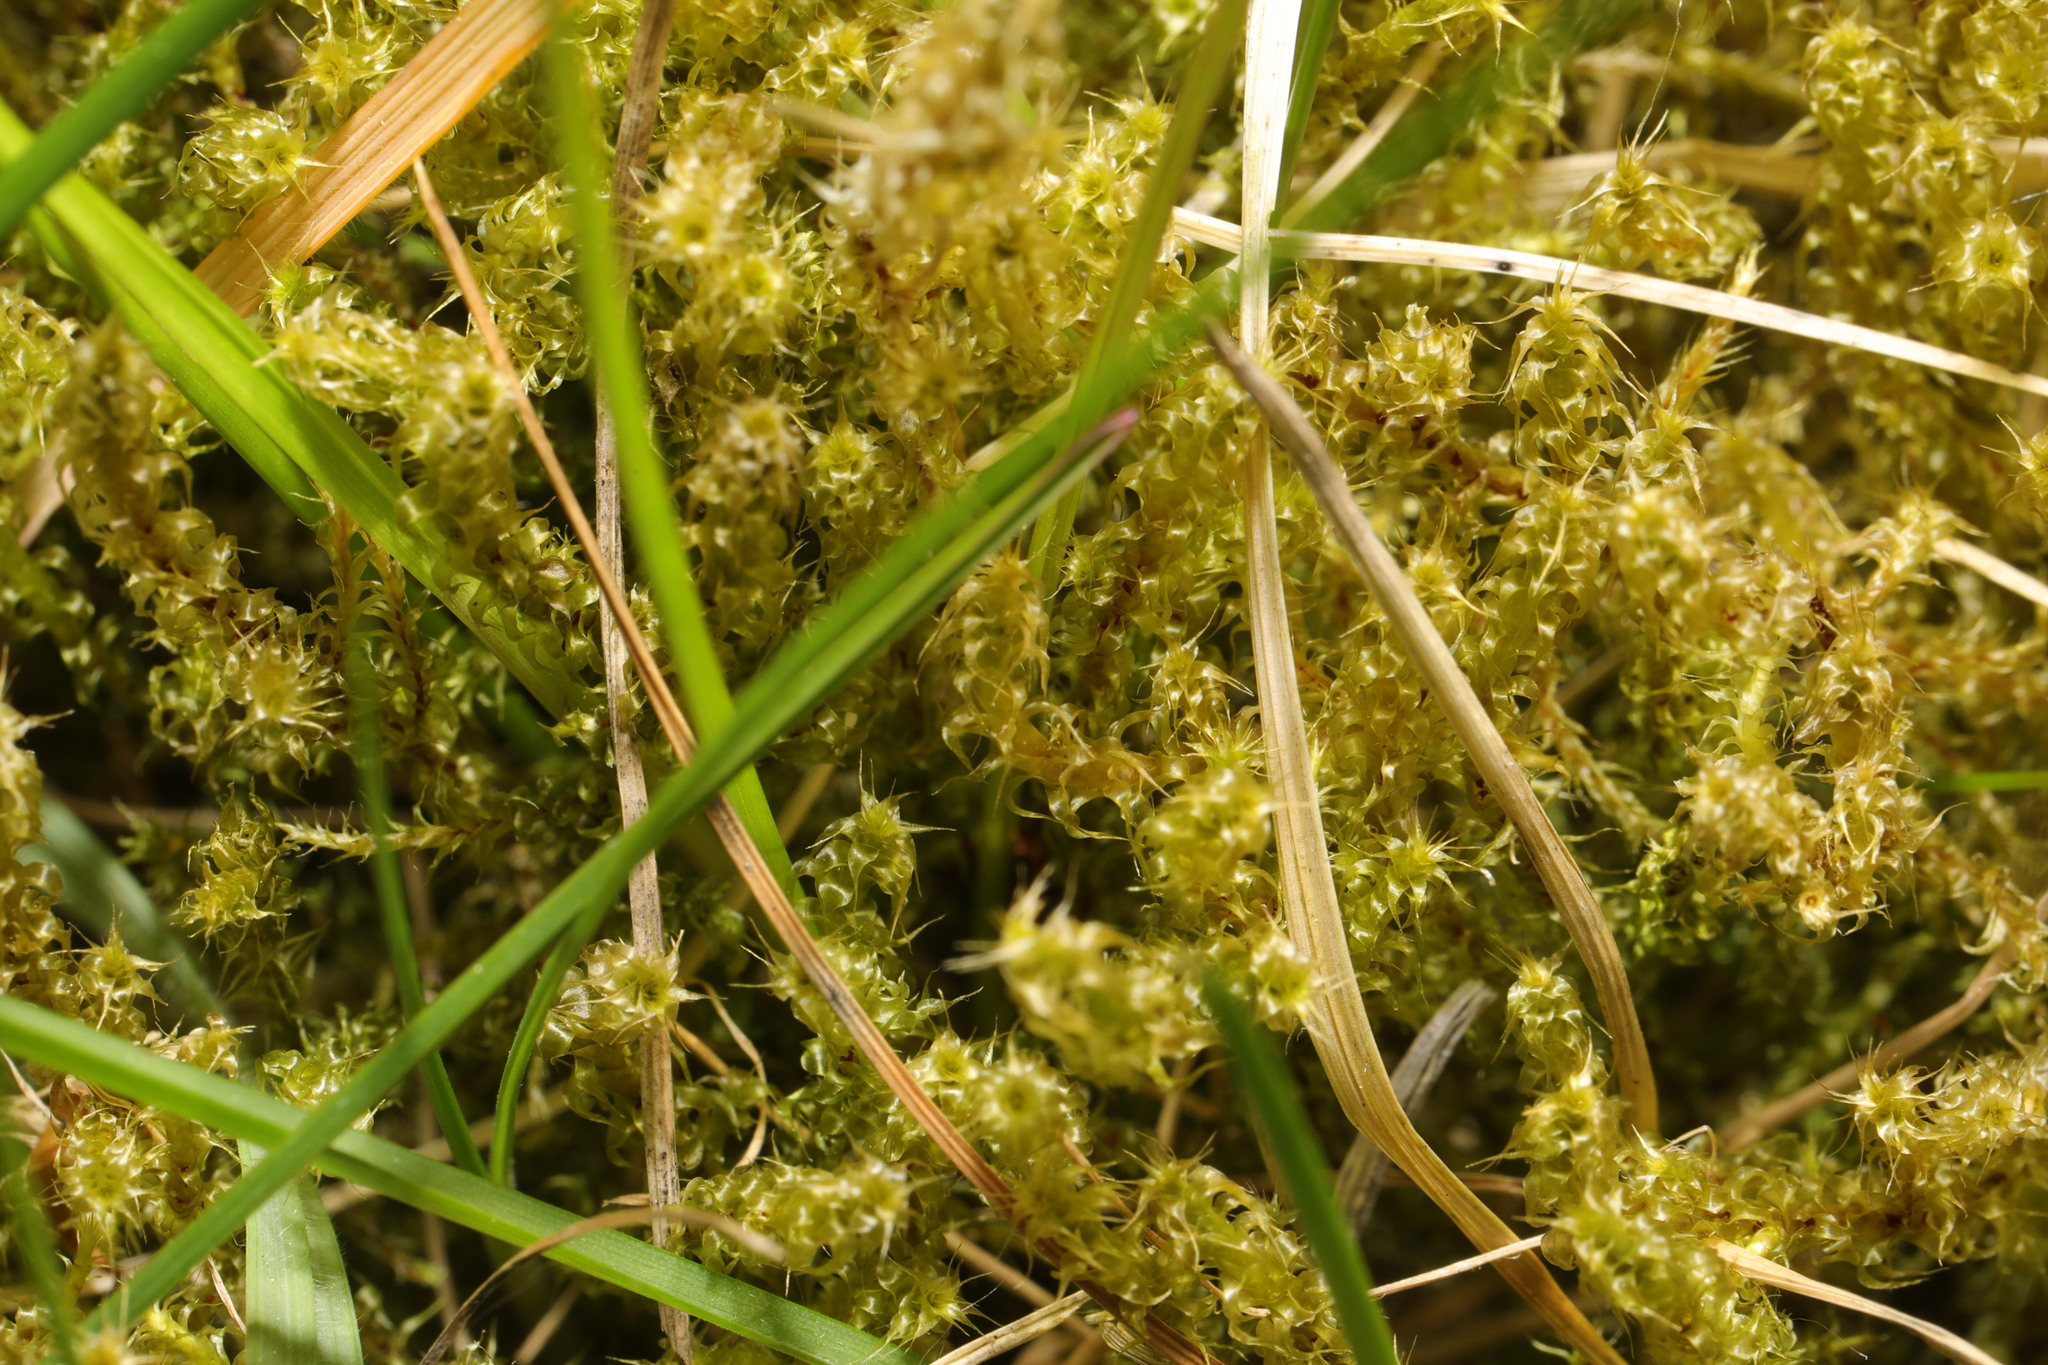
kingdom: Plantae
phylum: Bryophyta
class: Bryopsida
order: Hypnales
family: Hylocomiaceae
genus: Rhytidiadelphus
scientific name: Rhytidiadelphus squarrosus
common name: Springy turf-moss
